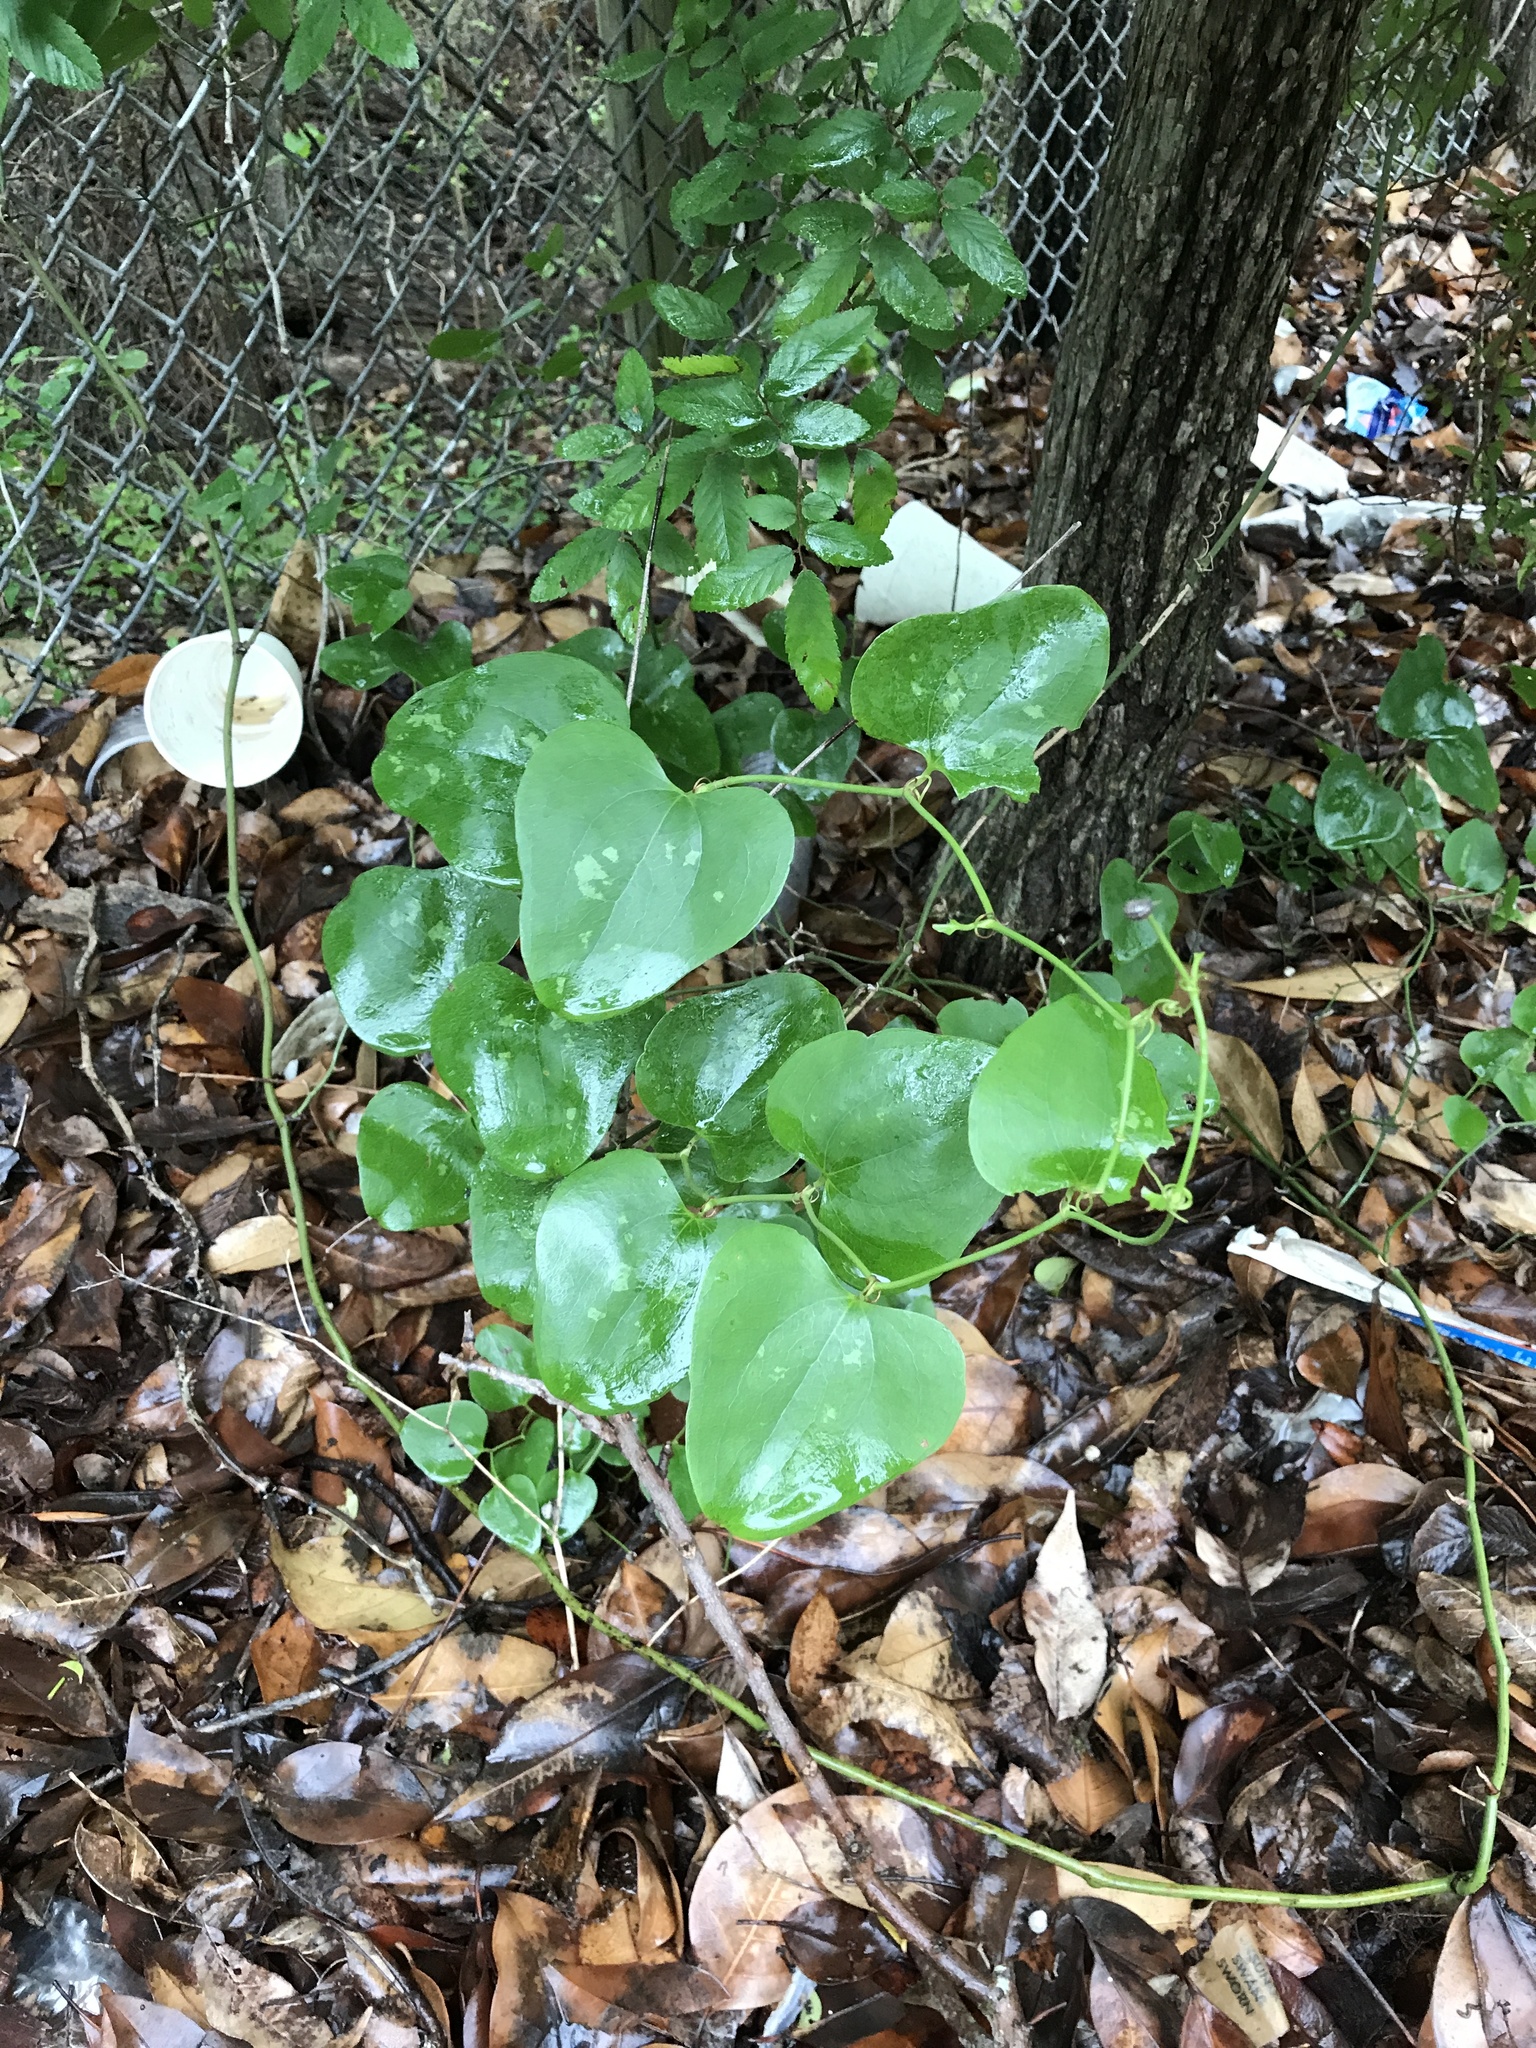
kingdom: Plantae
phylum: Tracheophyta
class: Liliopsida
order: Liliales
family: Smilacaceae
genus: Smilax
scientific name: Smilax bona-nox
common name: Catbrier
